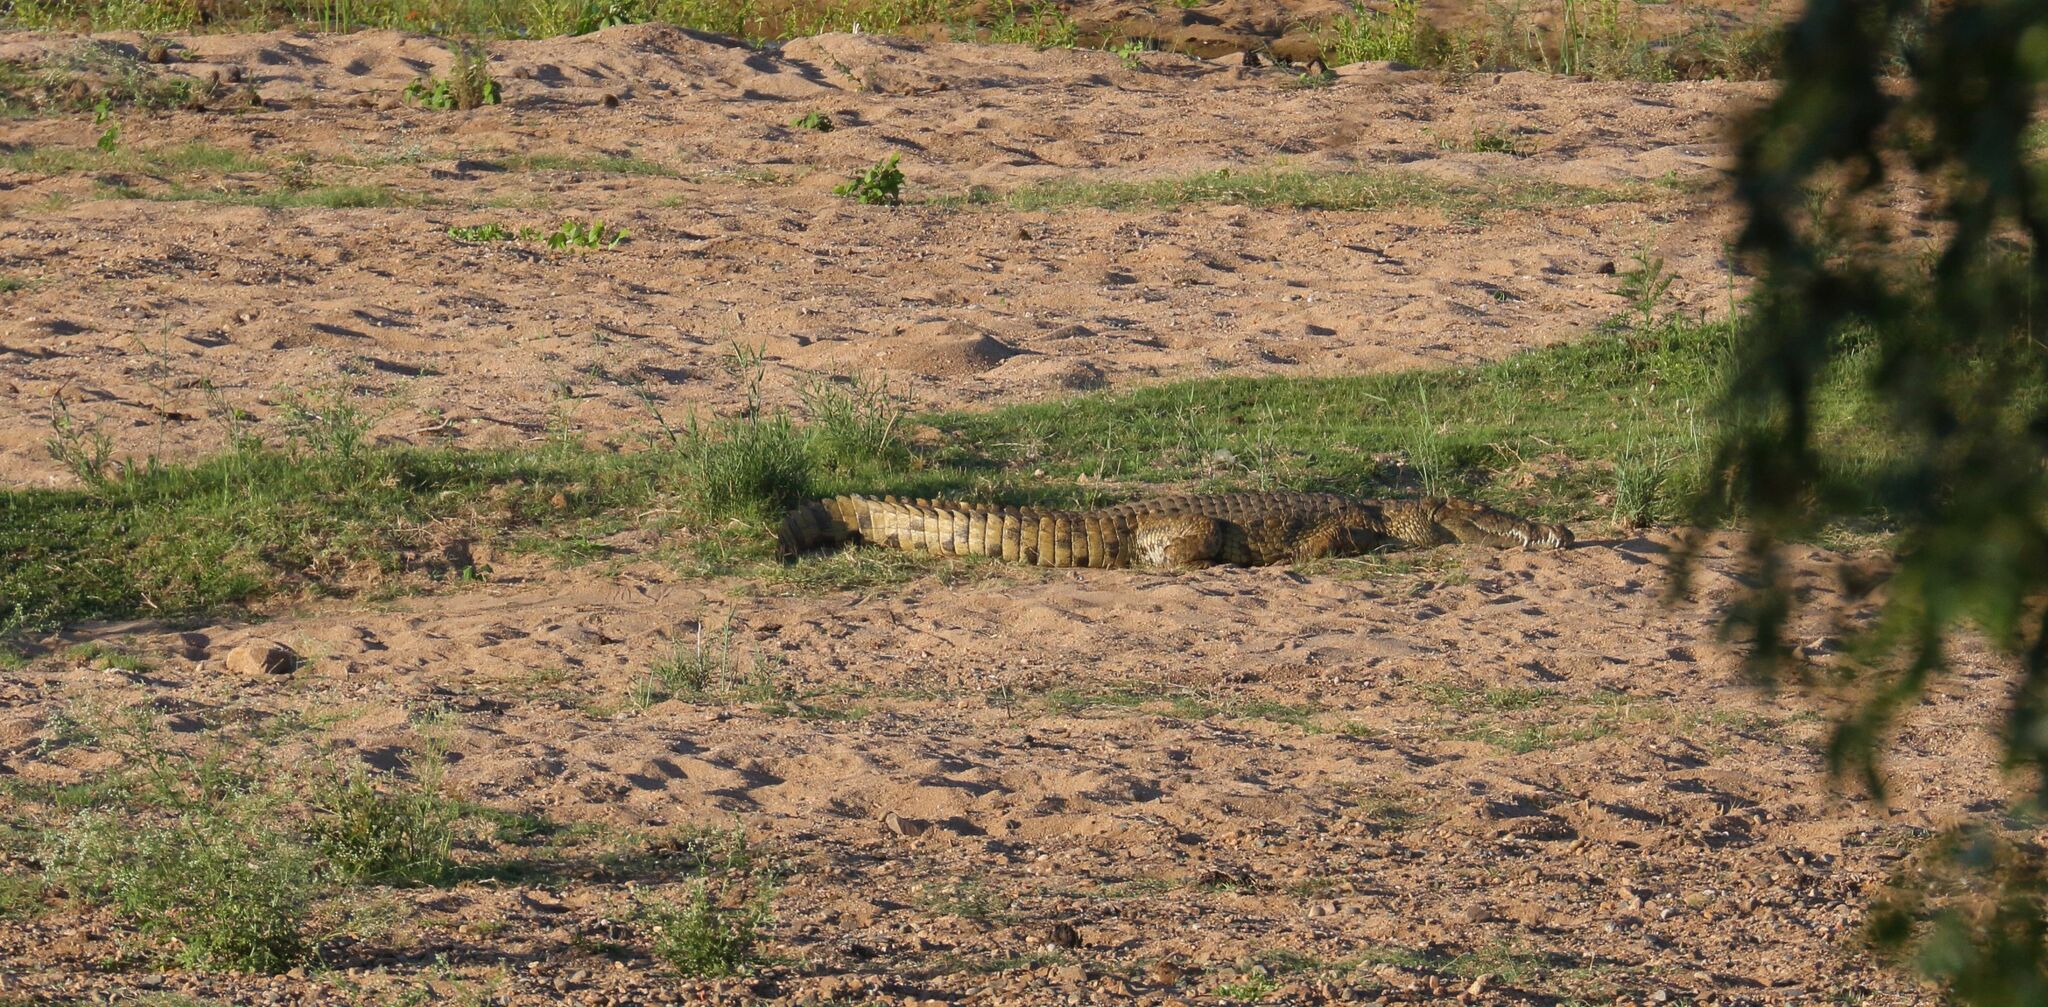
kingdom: Animalia
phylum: Chordata
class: Crocodylia
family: Crocodylidae
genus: Crocodylus
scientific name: Crocodylus niloticus
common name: Nile crocodile
